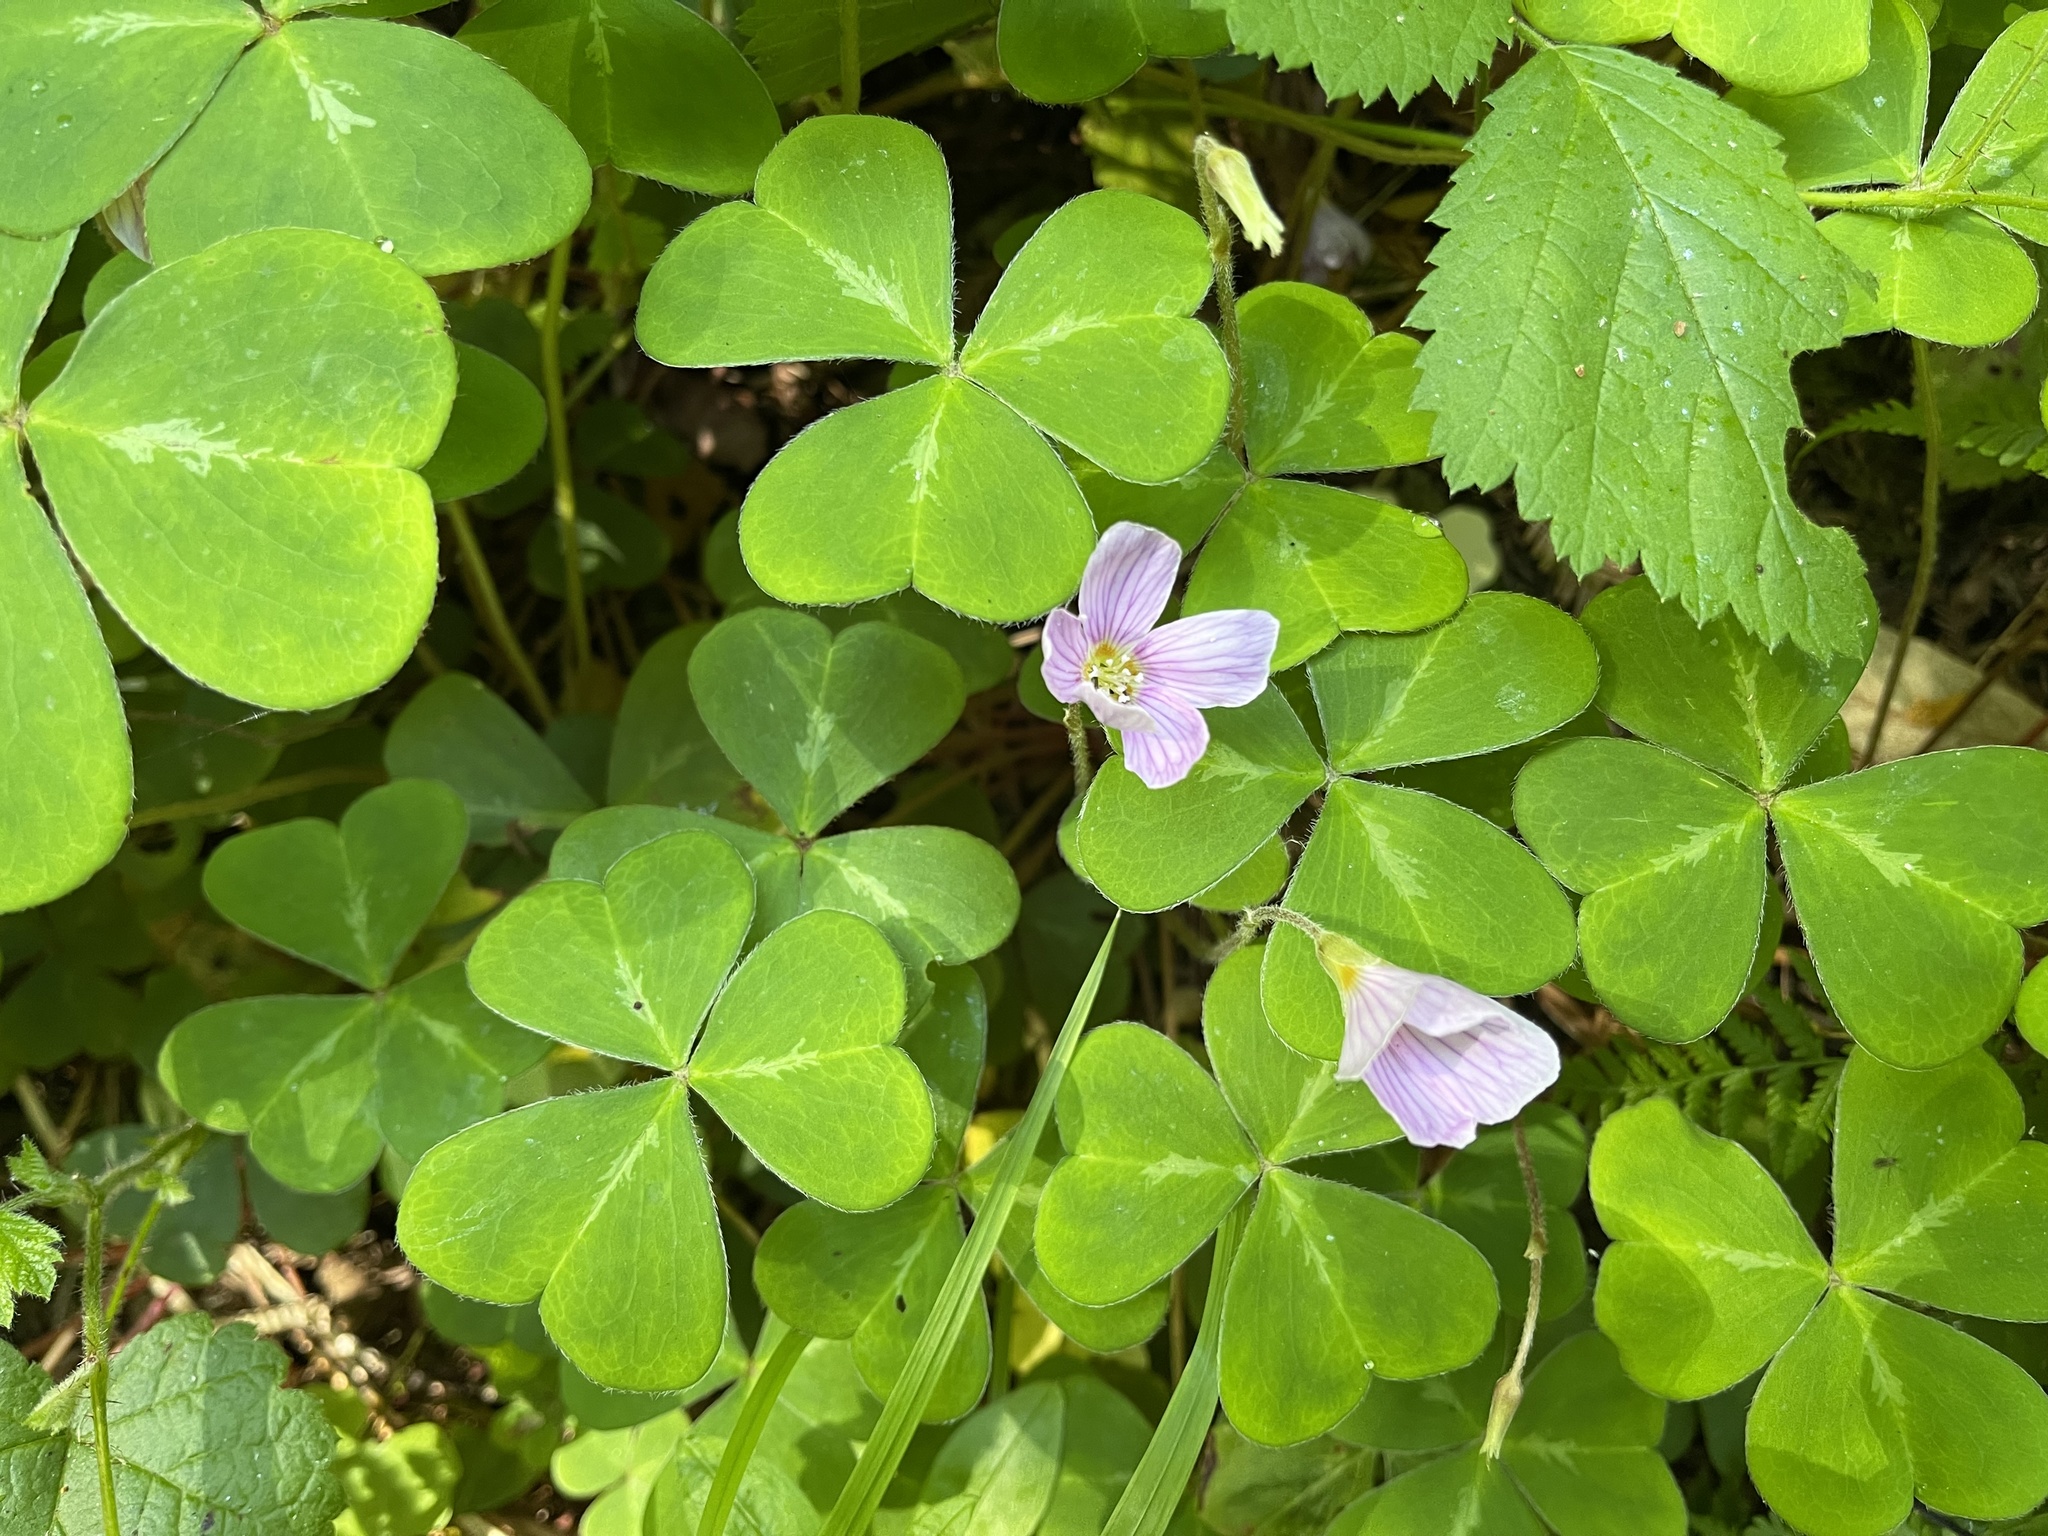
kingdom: Plantae
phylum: Tracheophyta
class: Magnoliopsida
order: Oxalidales
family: Oxalidaceae
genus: Oxalis
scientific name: Oxalis oregana
